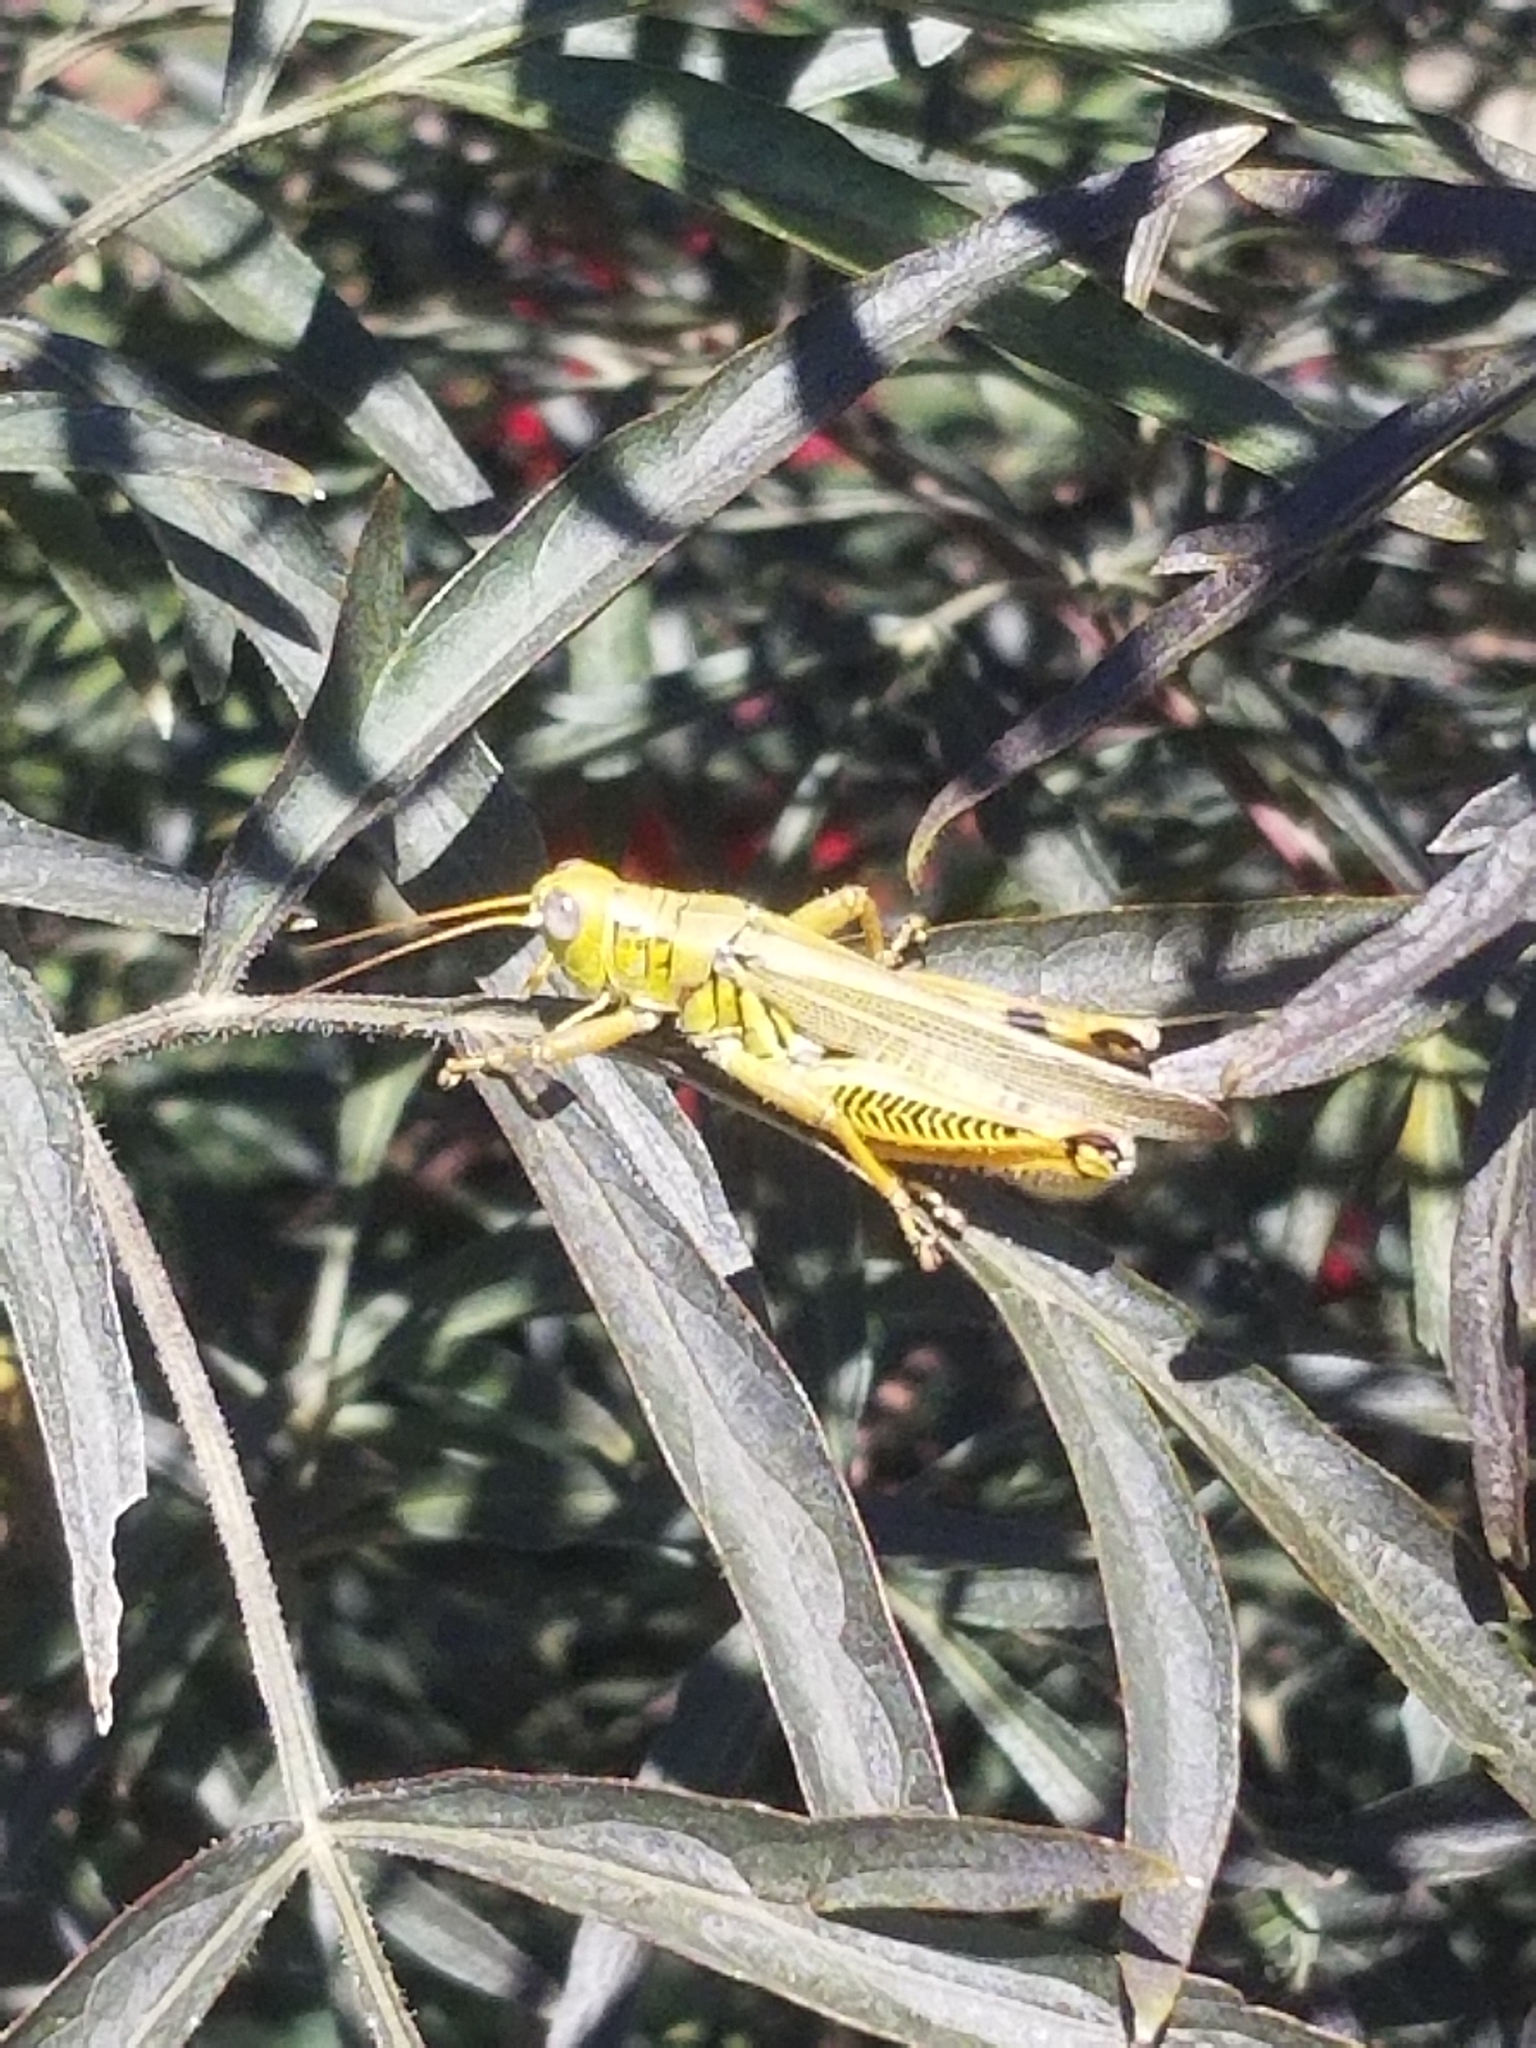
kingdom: Animalia
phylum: Arthropoda
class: Insecta
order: Orthoptera
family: Acrididae
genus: Melanoplus
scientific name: Melanoplus differentialis
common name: Differential grasshopper
